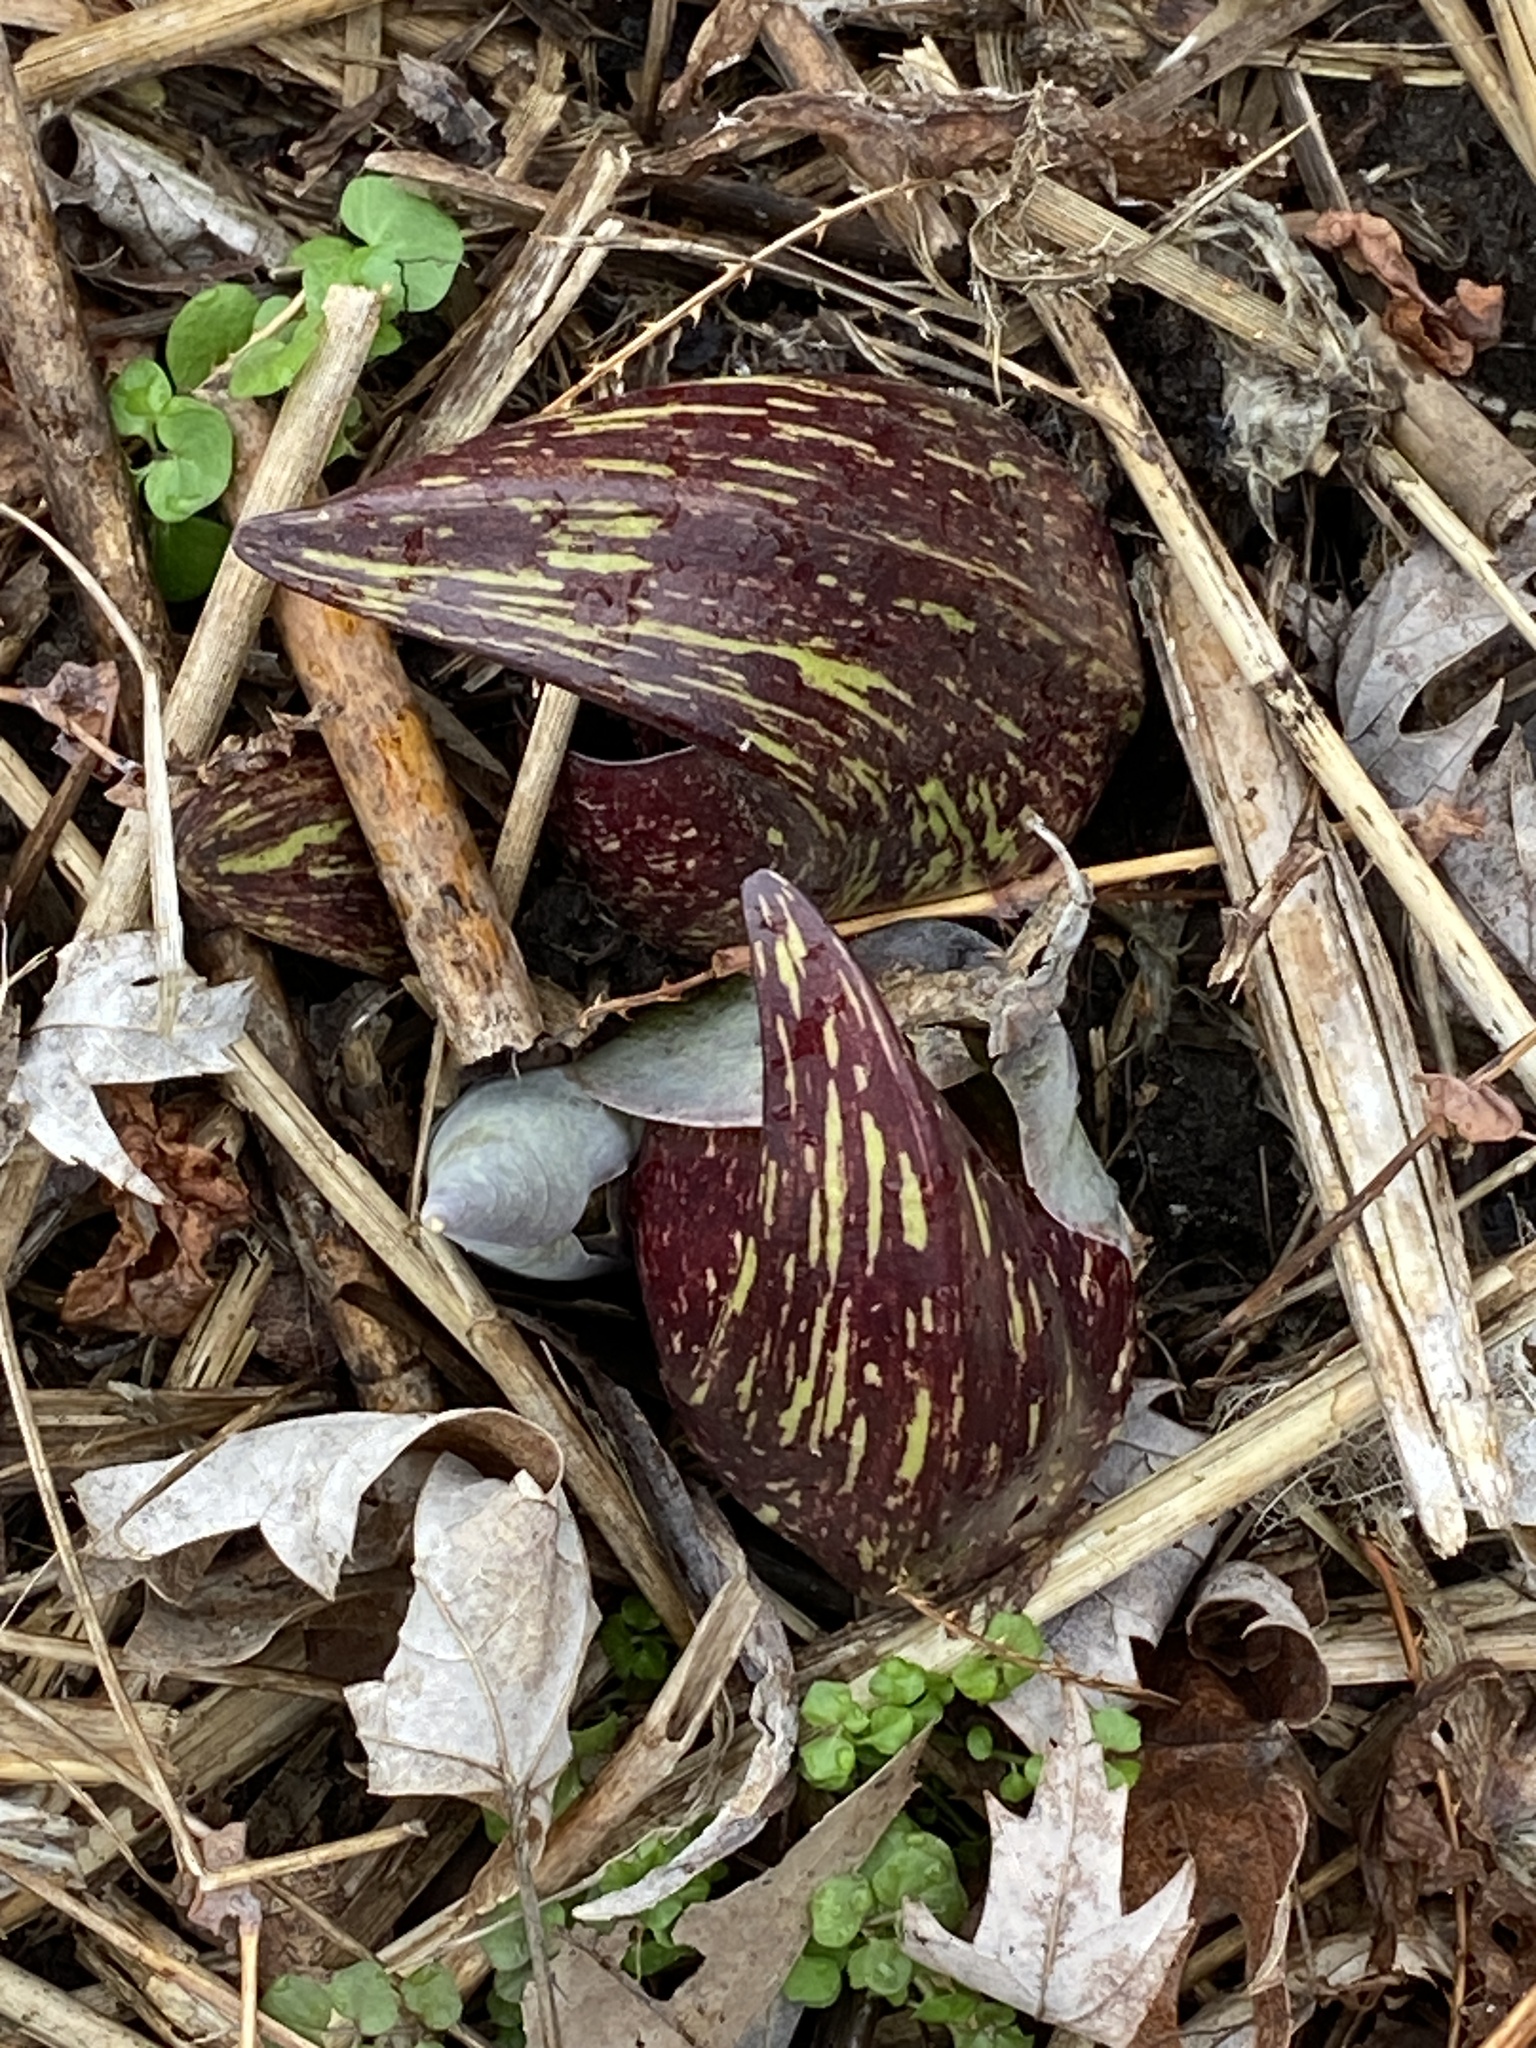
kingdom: Plantae
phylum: Tracheophyta
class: Liliopsida
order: Alismatales
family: Araceae
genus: Symplocarpus
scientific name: Symplocarpus foetidus
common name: Eastern skunk cabbage
